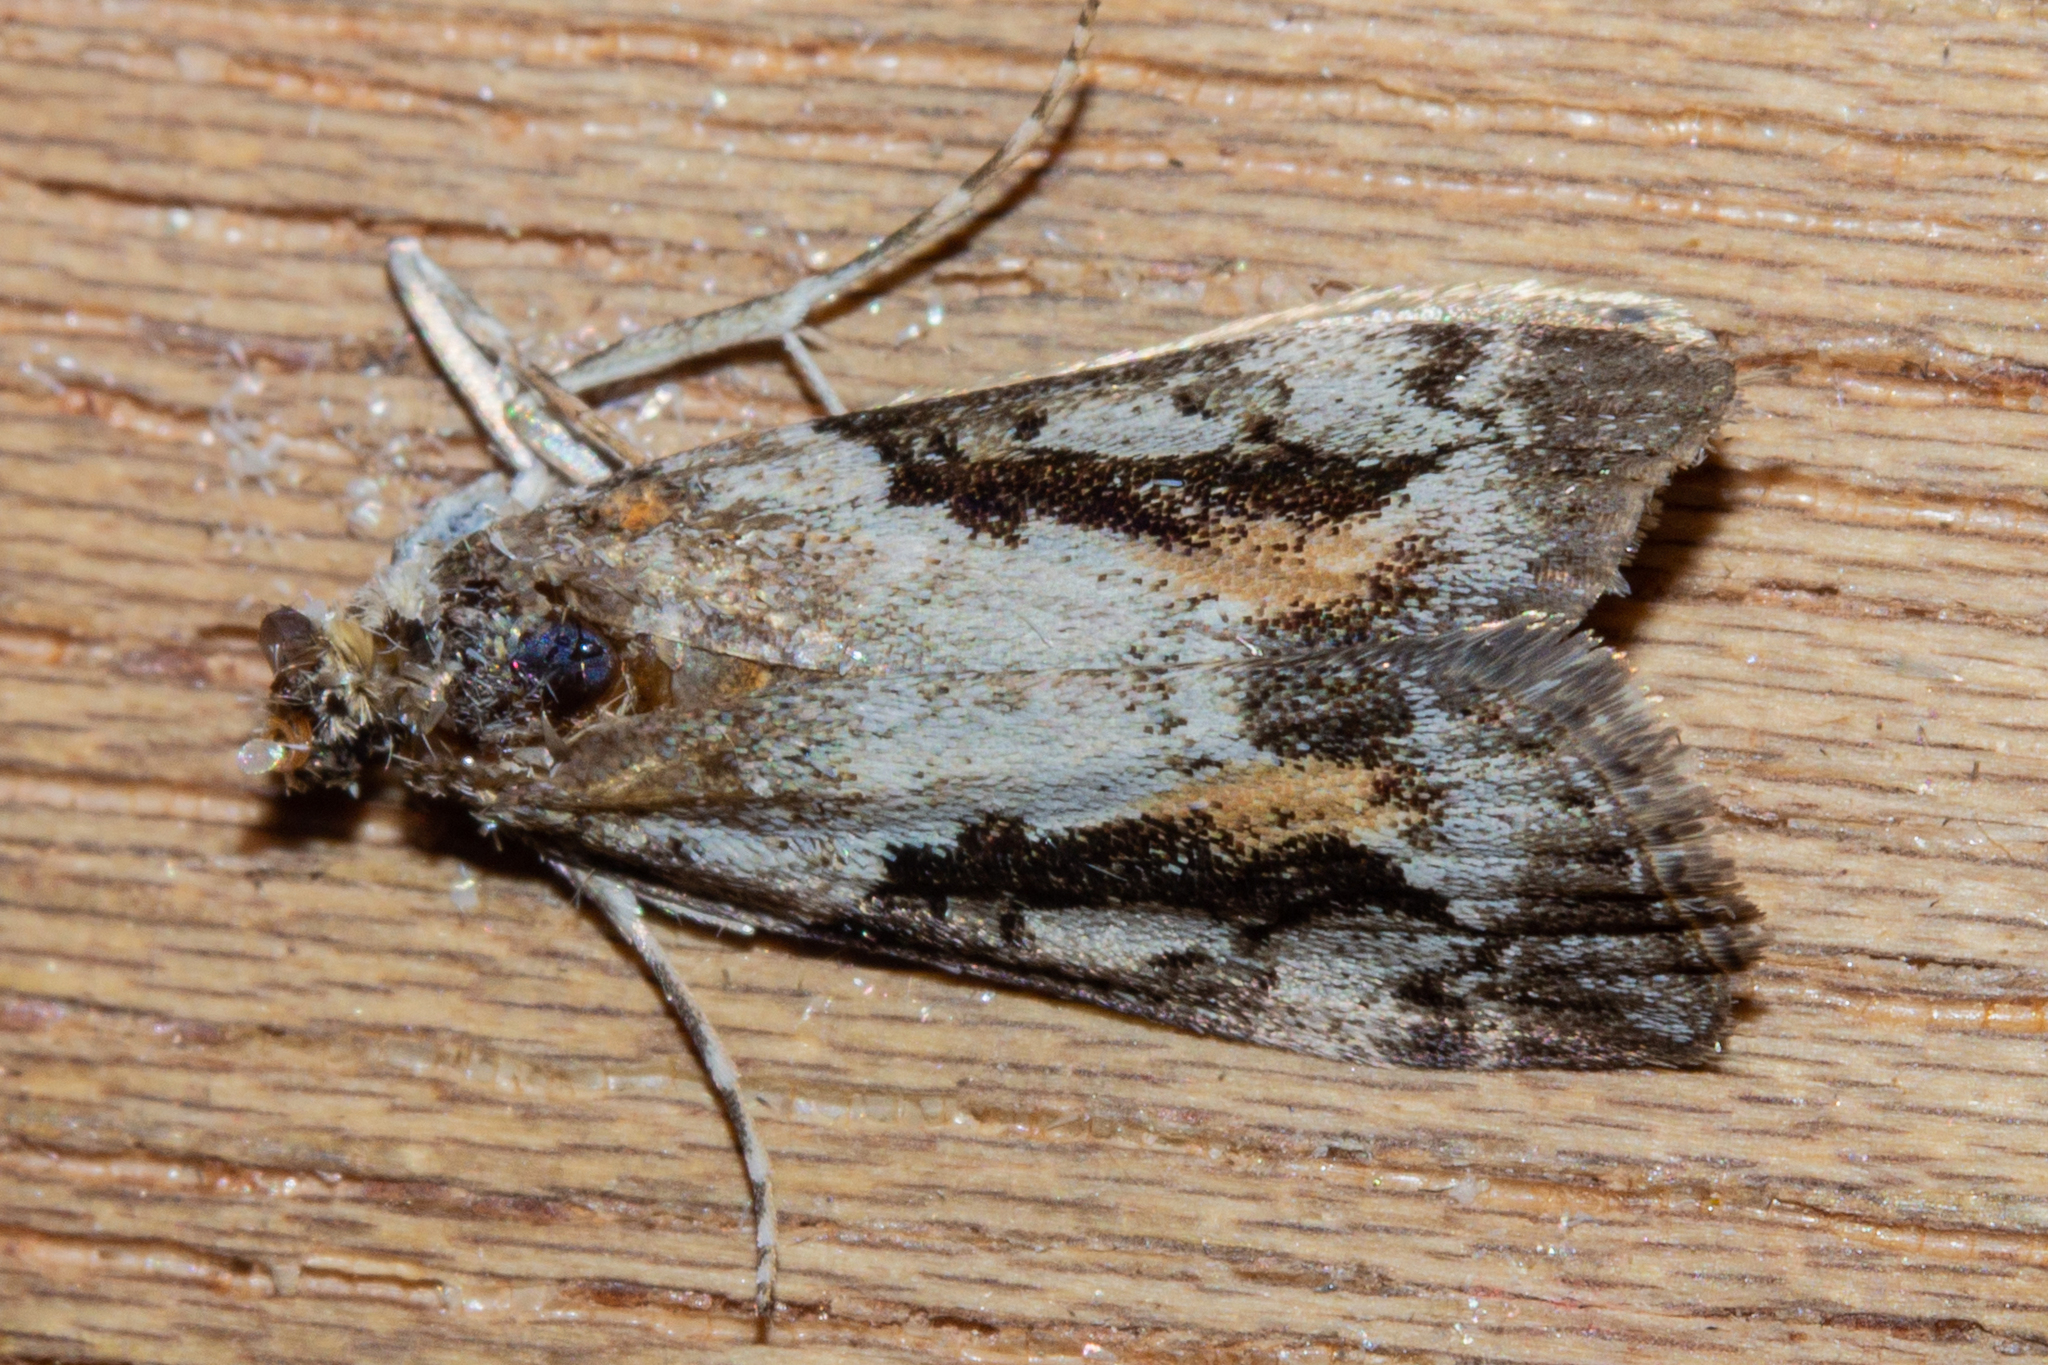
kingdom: Animalia
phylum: Arthropoda
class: Insecta
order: Lepidoptera
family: Crambidae
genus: Eudonia
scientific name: Eudonia submarginalis
